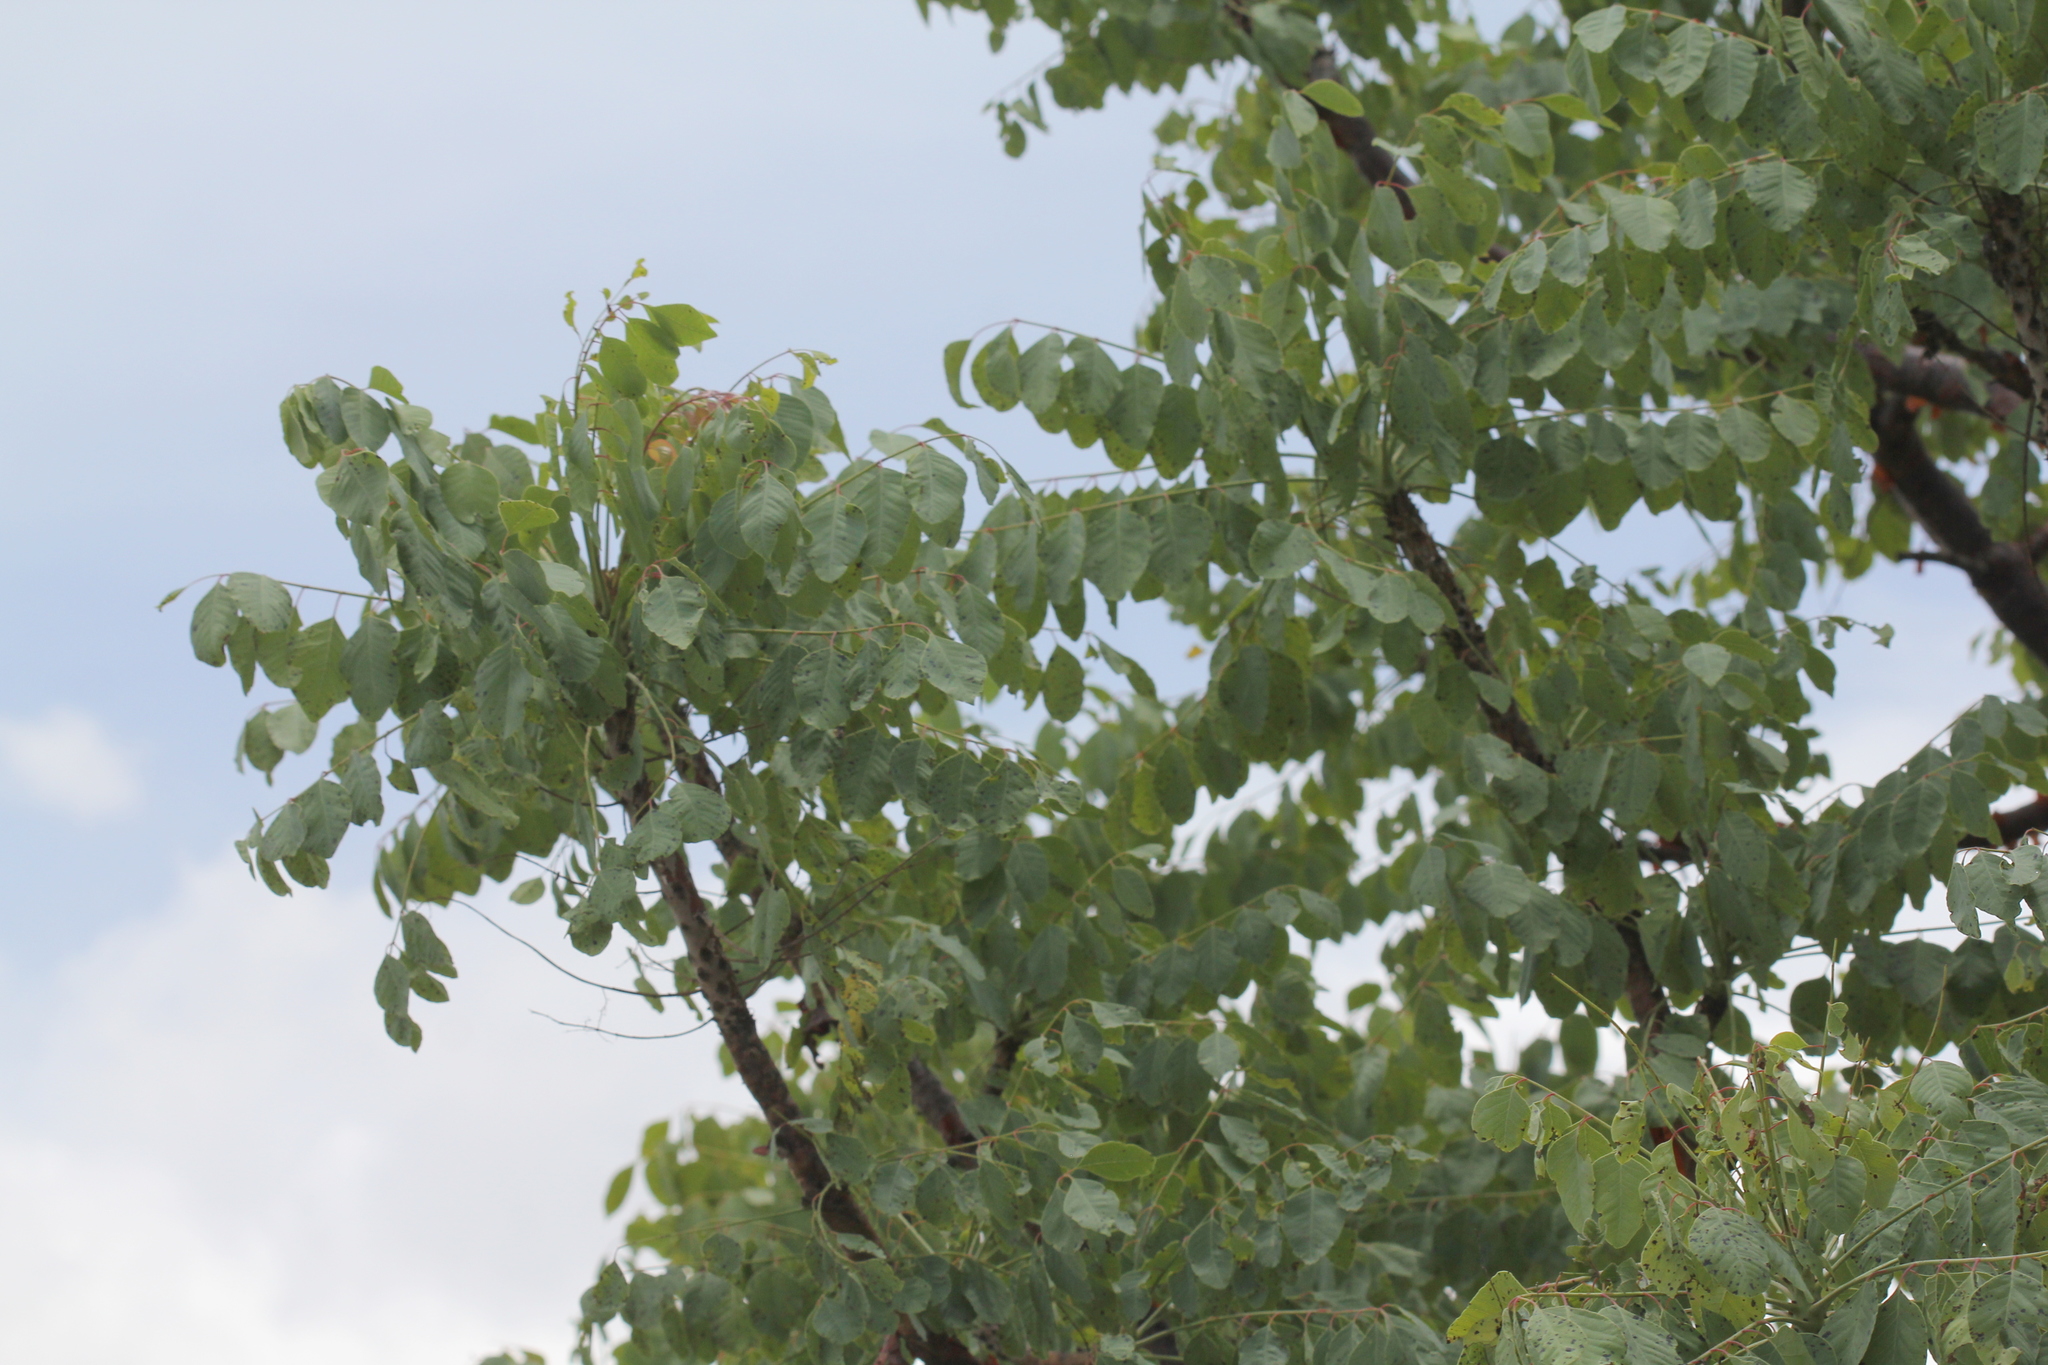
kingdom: Plantae
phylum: Tracheophyta
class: Magnoliopsida
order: Sapindales
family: Anacardiaceae
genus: Pseudosmodingium
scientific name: Pseudosmodingium perniciosum
